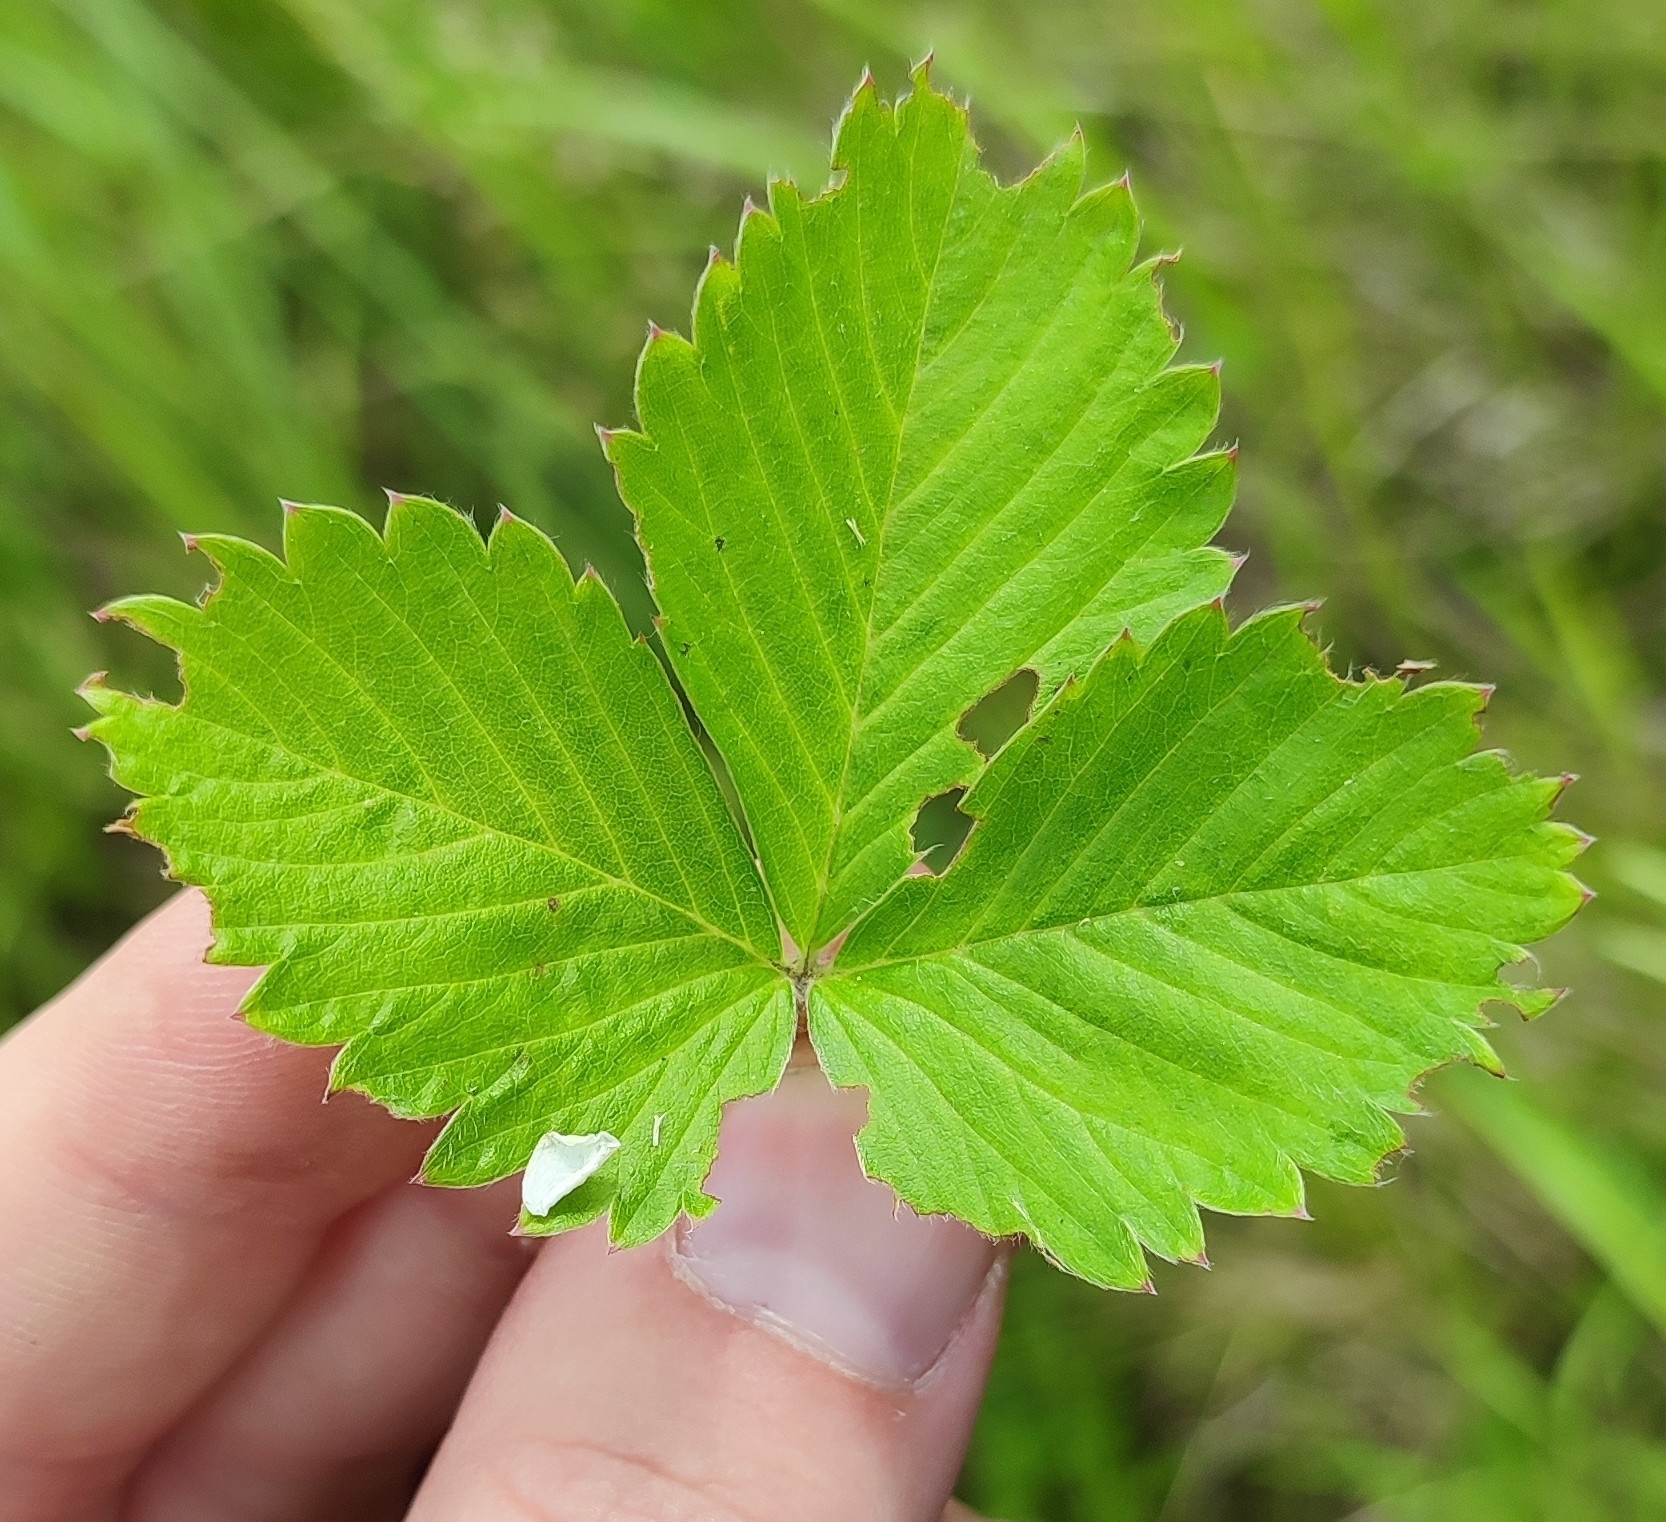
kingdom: Plantae
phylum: Tracheophyta
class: Magnoliopsida
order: Rosales
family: Rosaceae
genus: Fragaria
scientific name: Fragaria viridis
